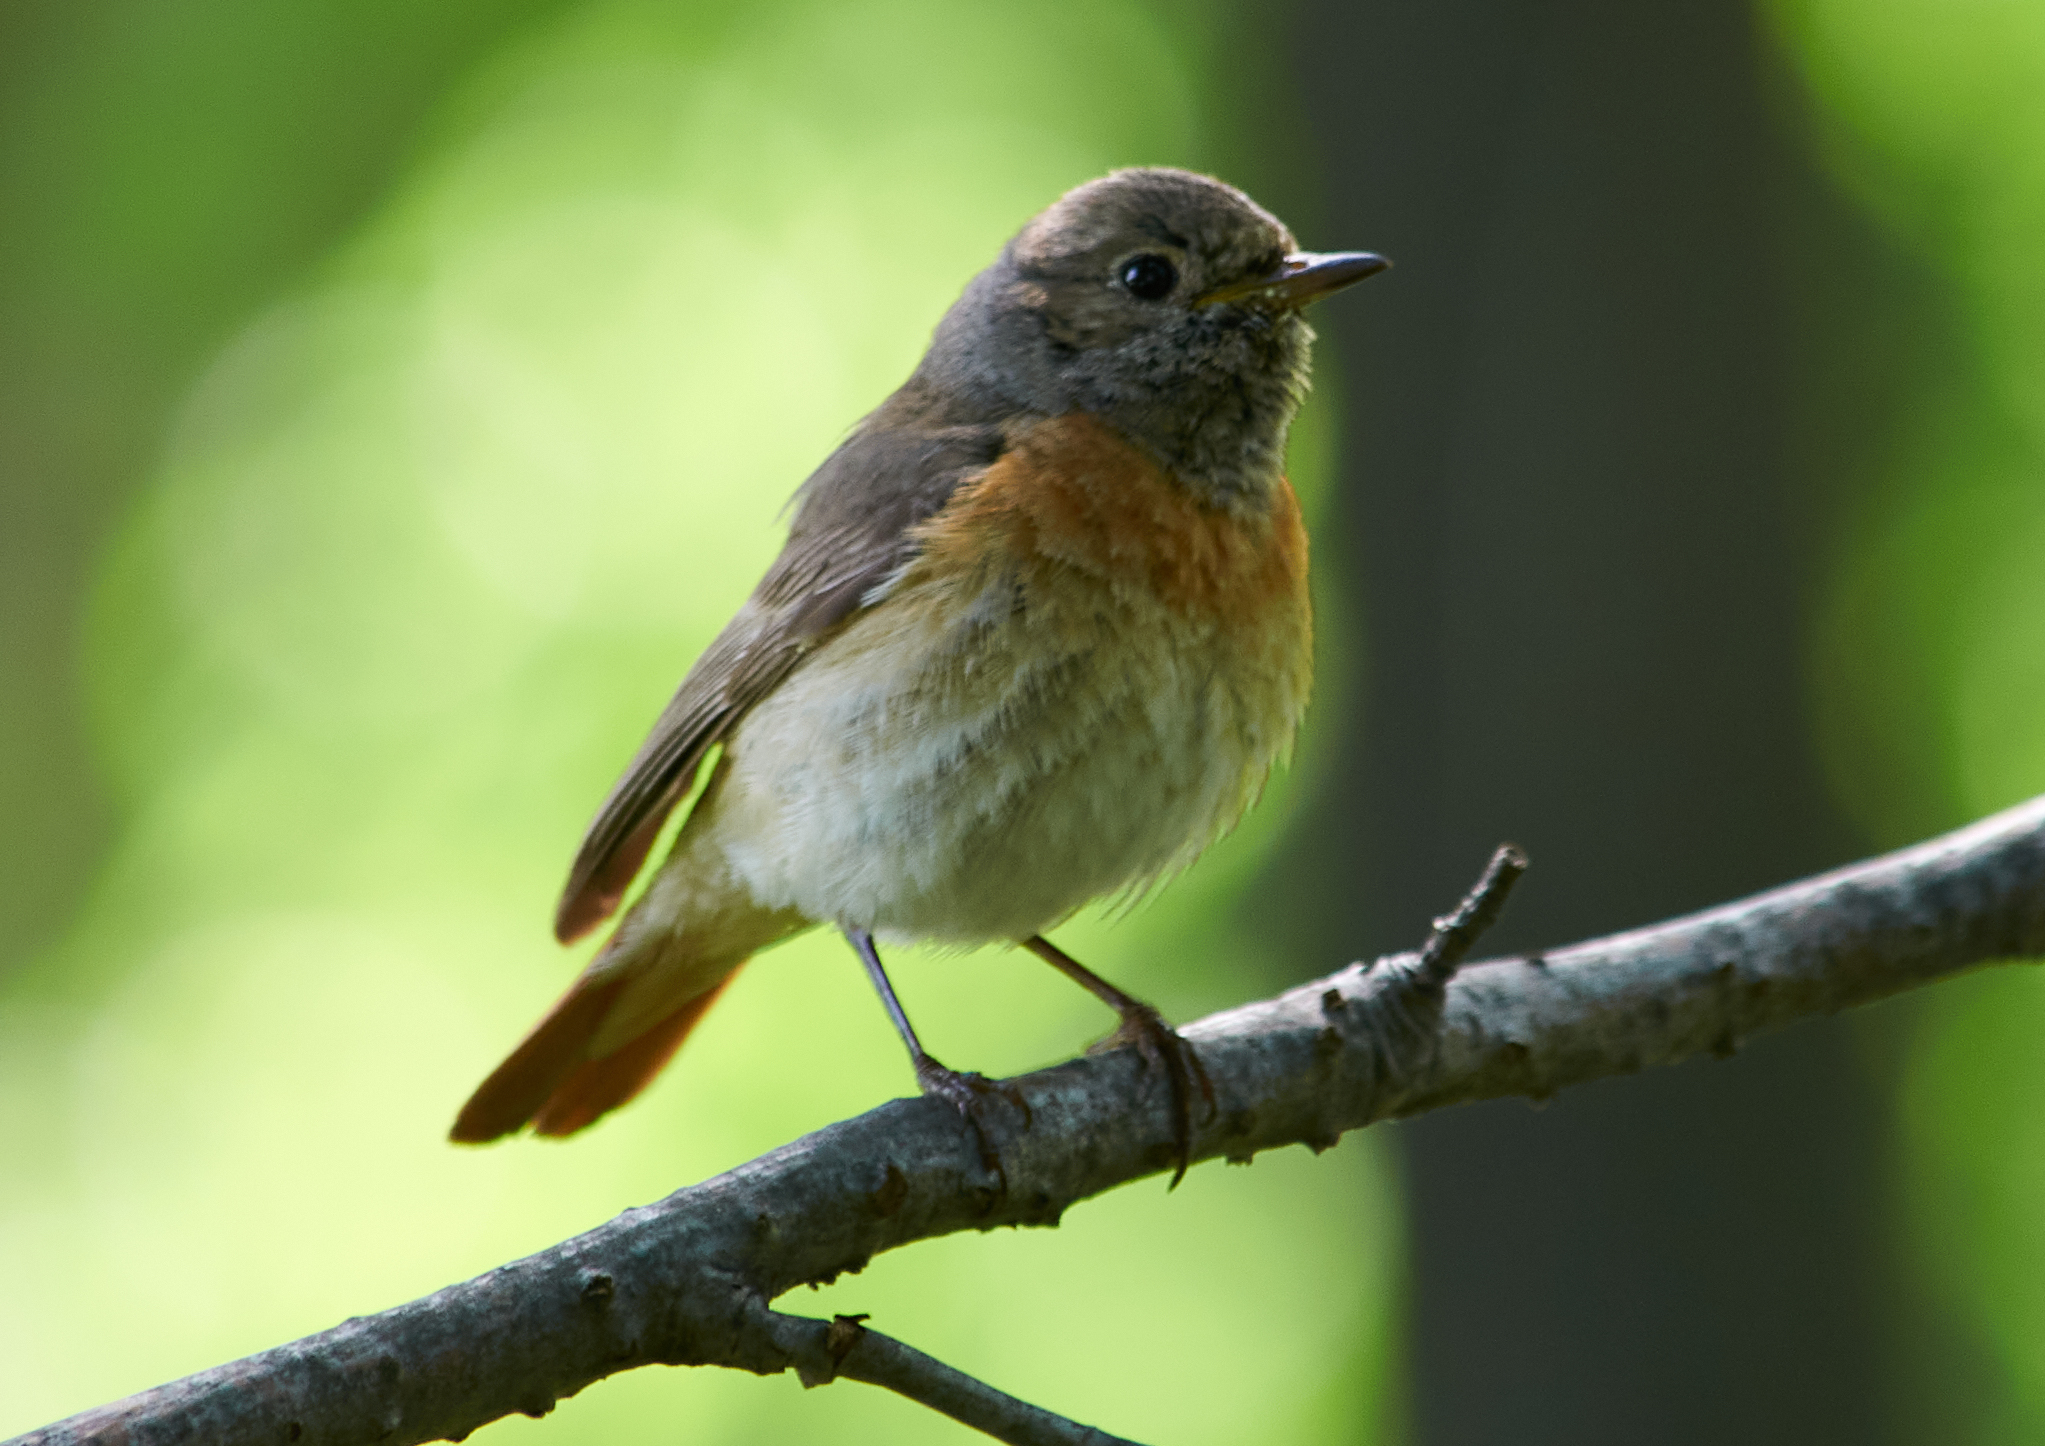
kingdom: Animalia
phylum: Chordata
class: Aves
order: Passeriformes
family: Muscicapidae
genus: Phoenicurus
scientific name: Phoenicurus phoenicurus
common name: Common redstart
